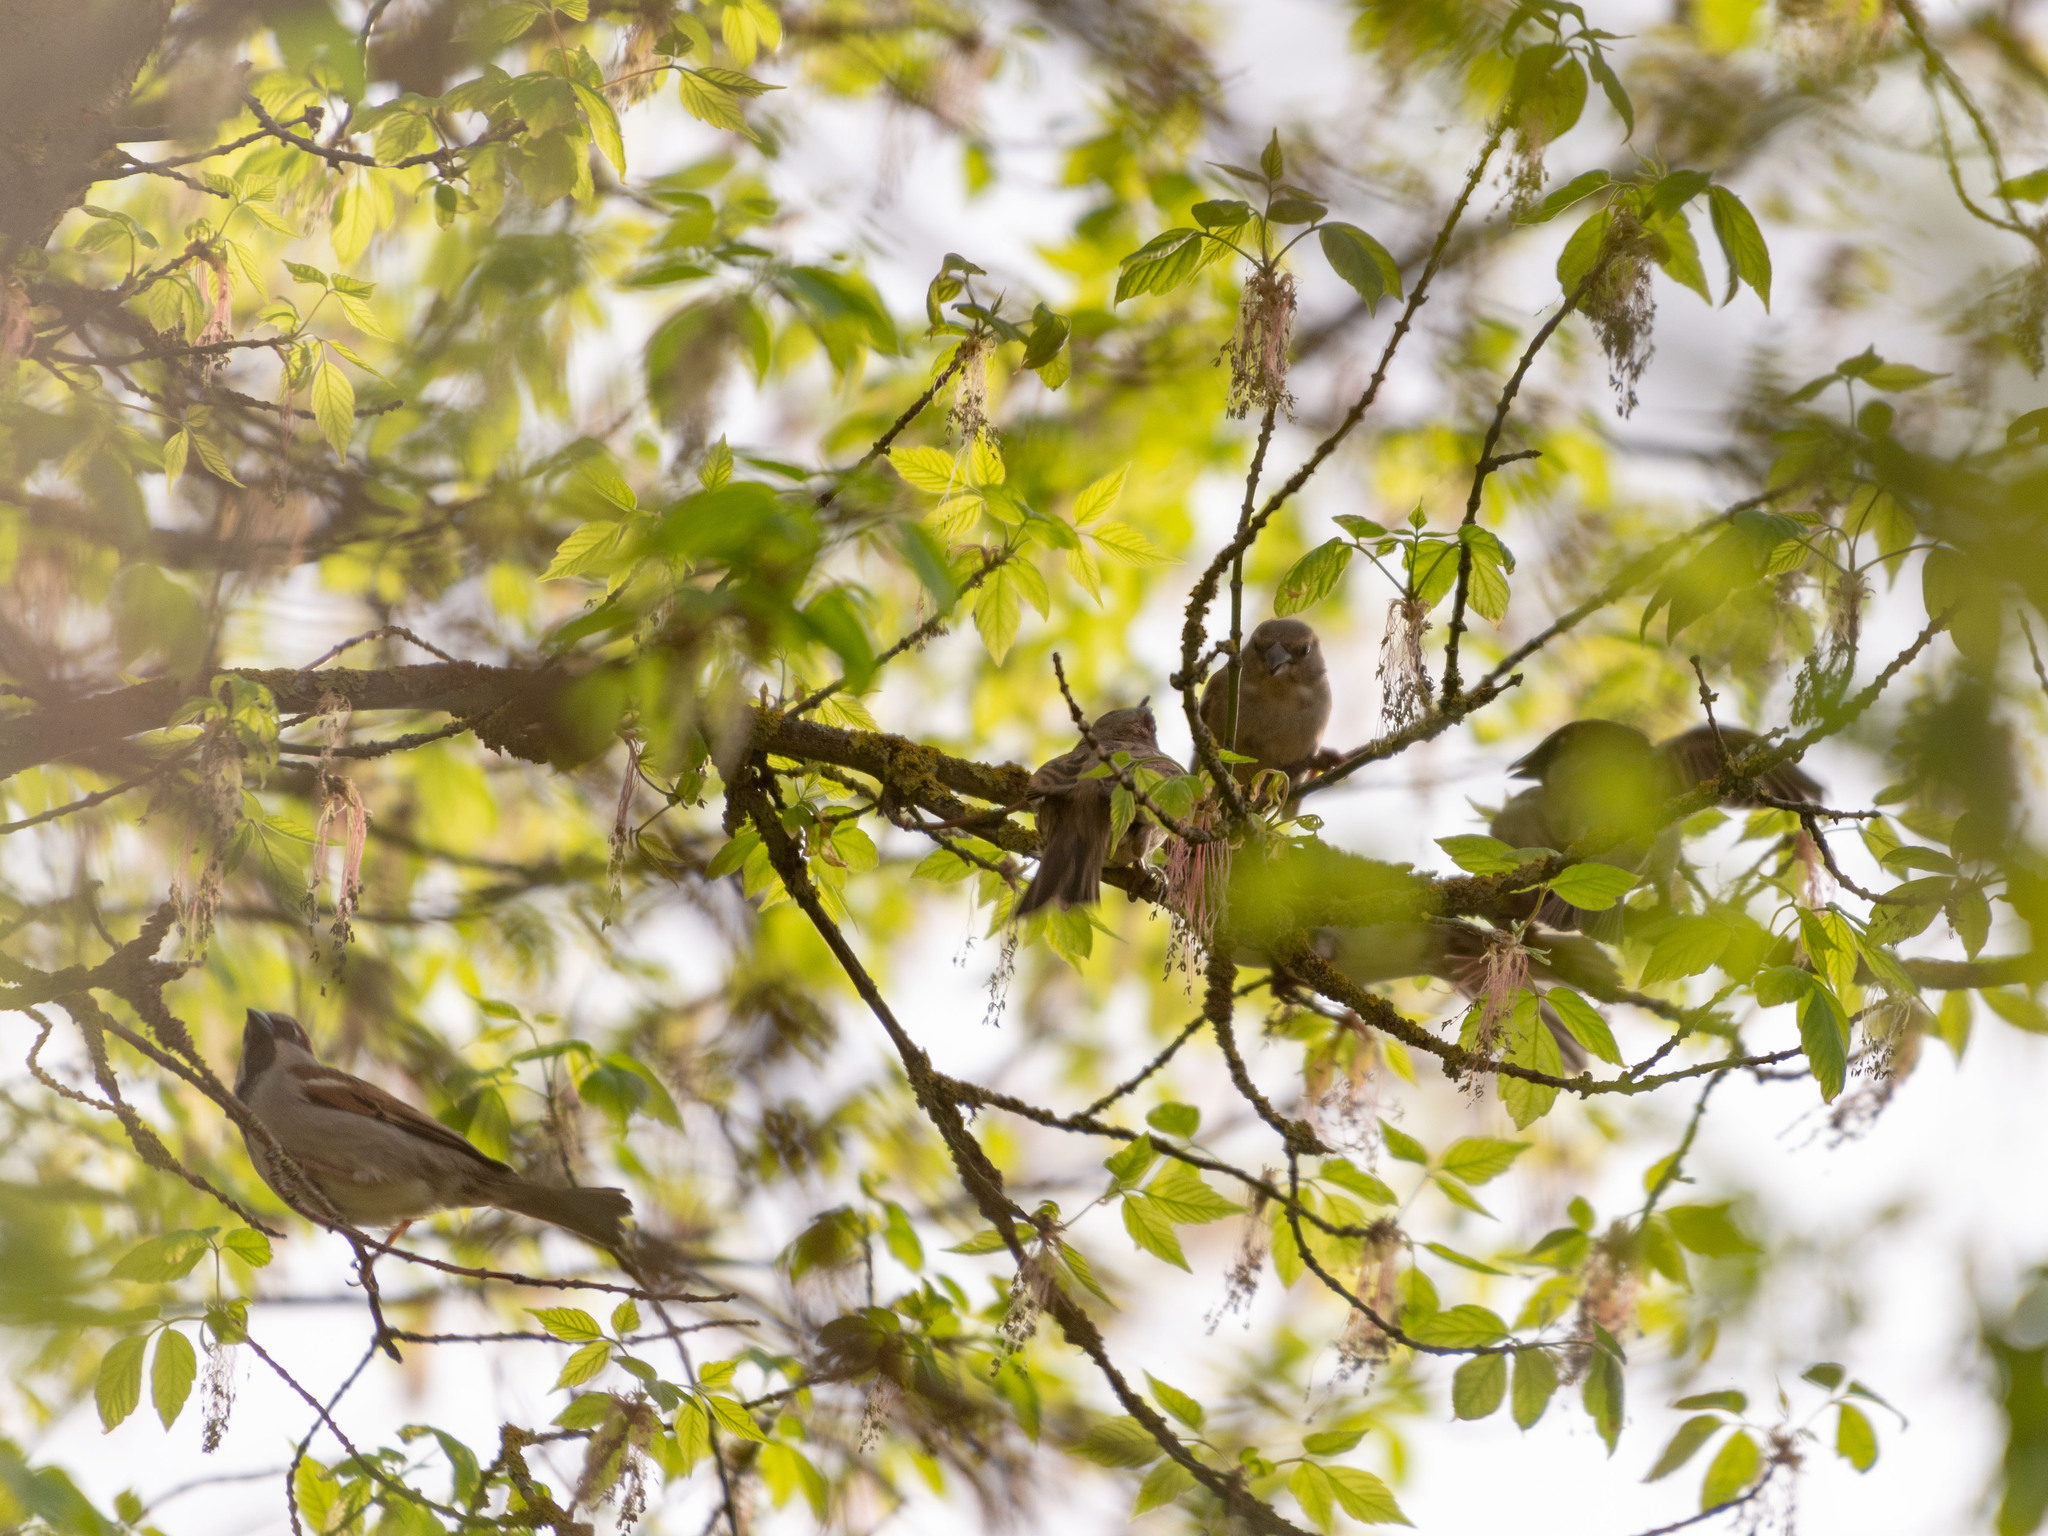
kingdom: Animalia
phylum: Chordata
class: Aves
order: Passeriformes
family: Passeridae
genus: Passer
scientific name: Passer domesticus
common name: House sparrow
